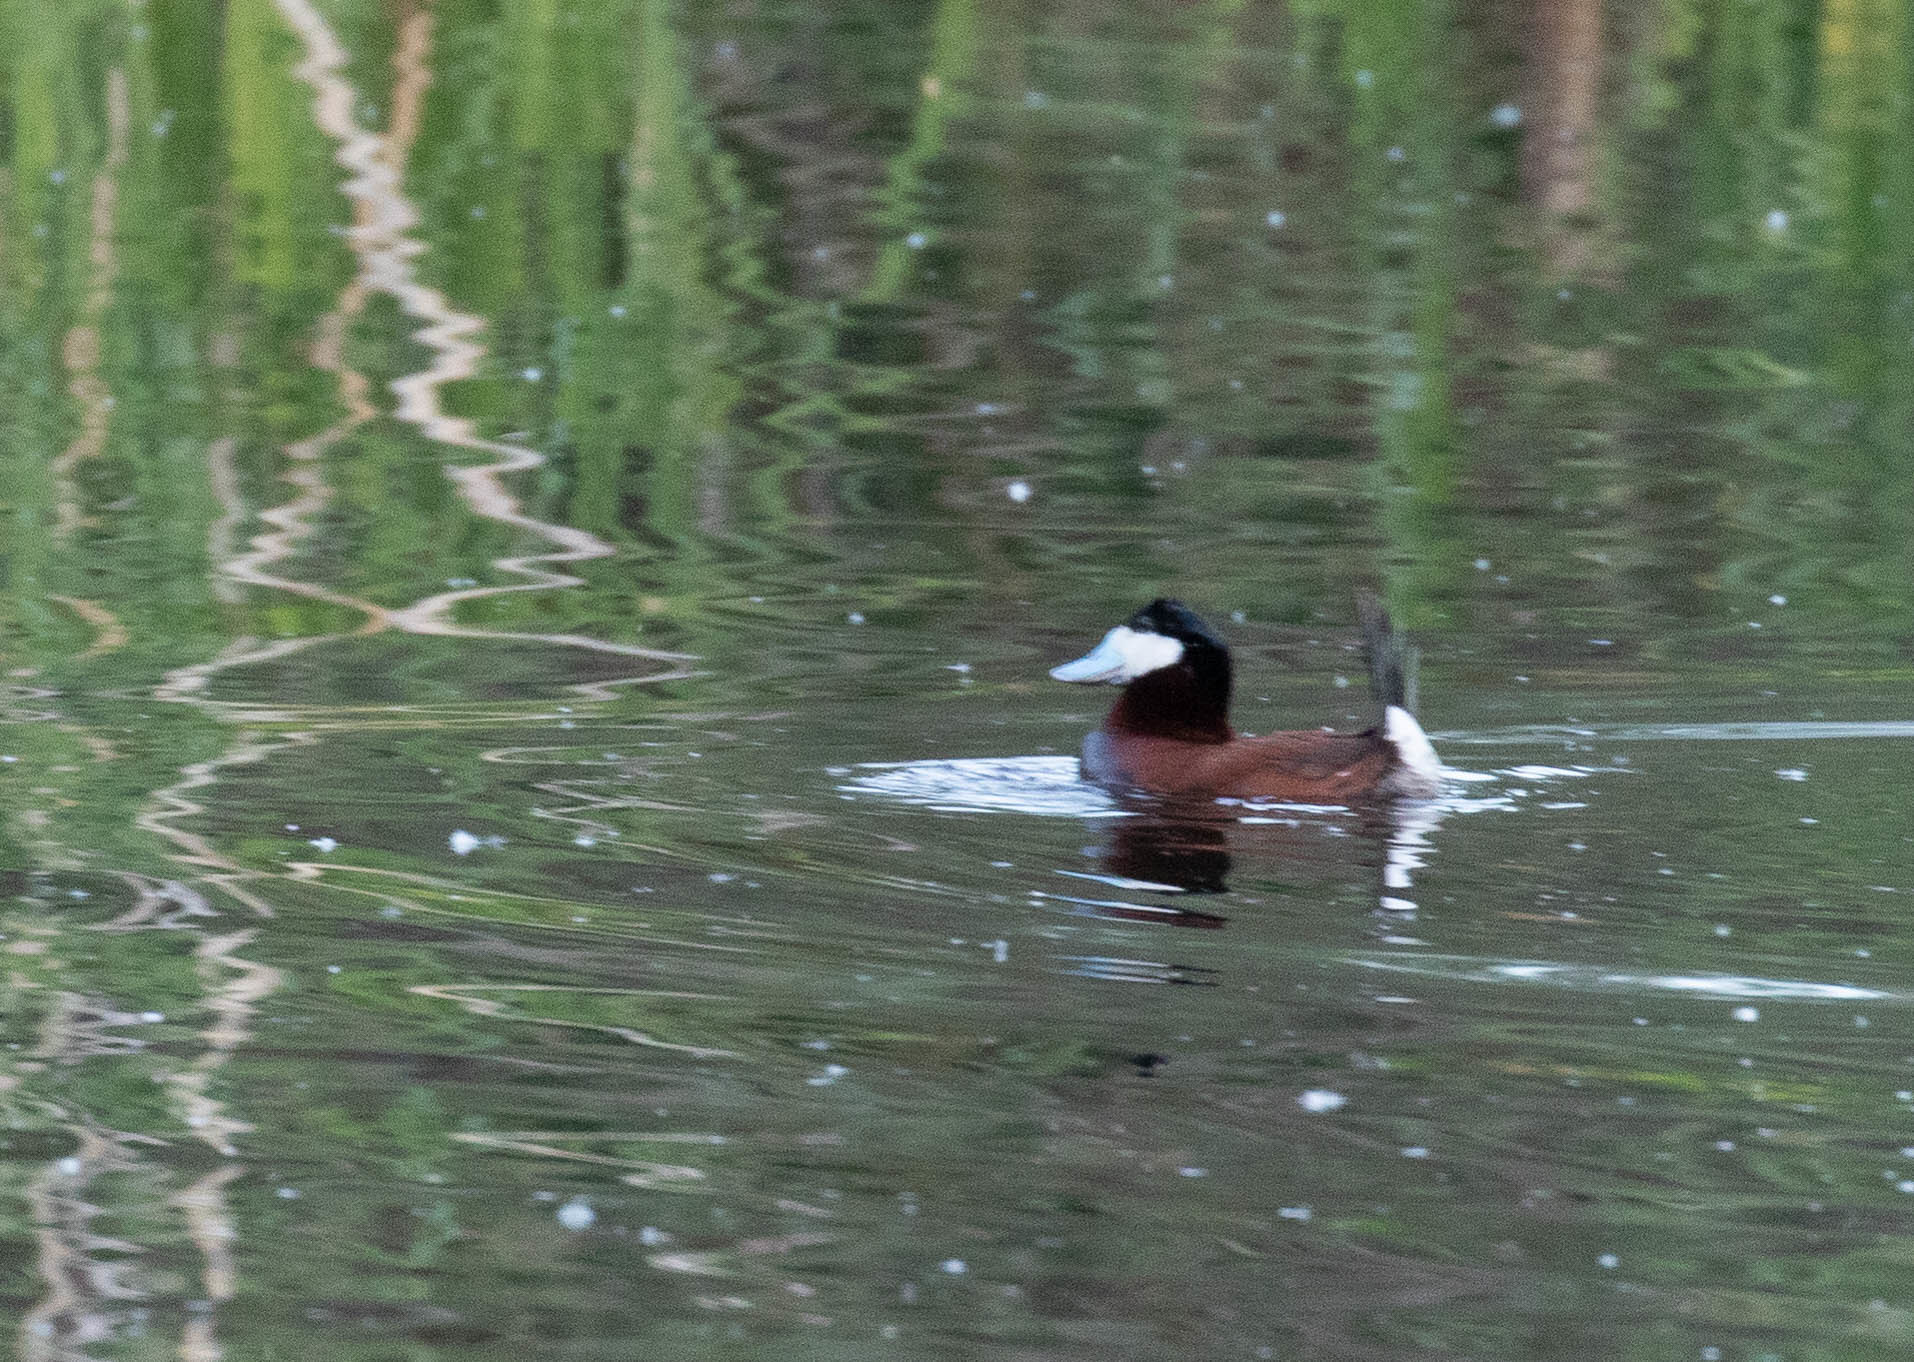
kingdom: Animalia
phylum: Chordata
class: Aves
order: Anseriformes
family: Anatidae
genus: Oxyura
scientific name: Oxyura jamaicensis
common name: Ruddy duck
